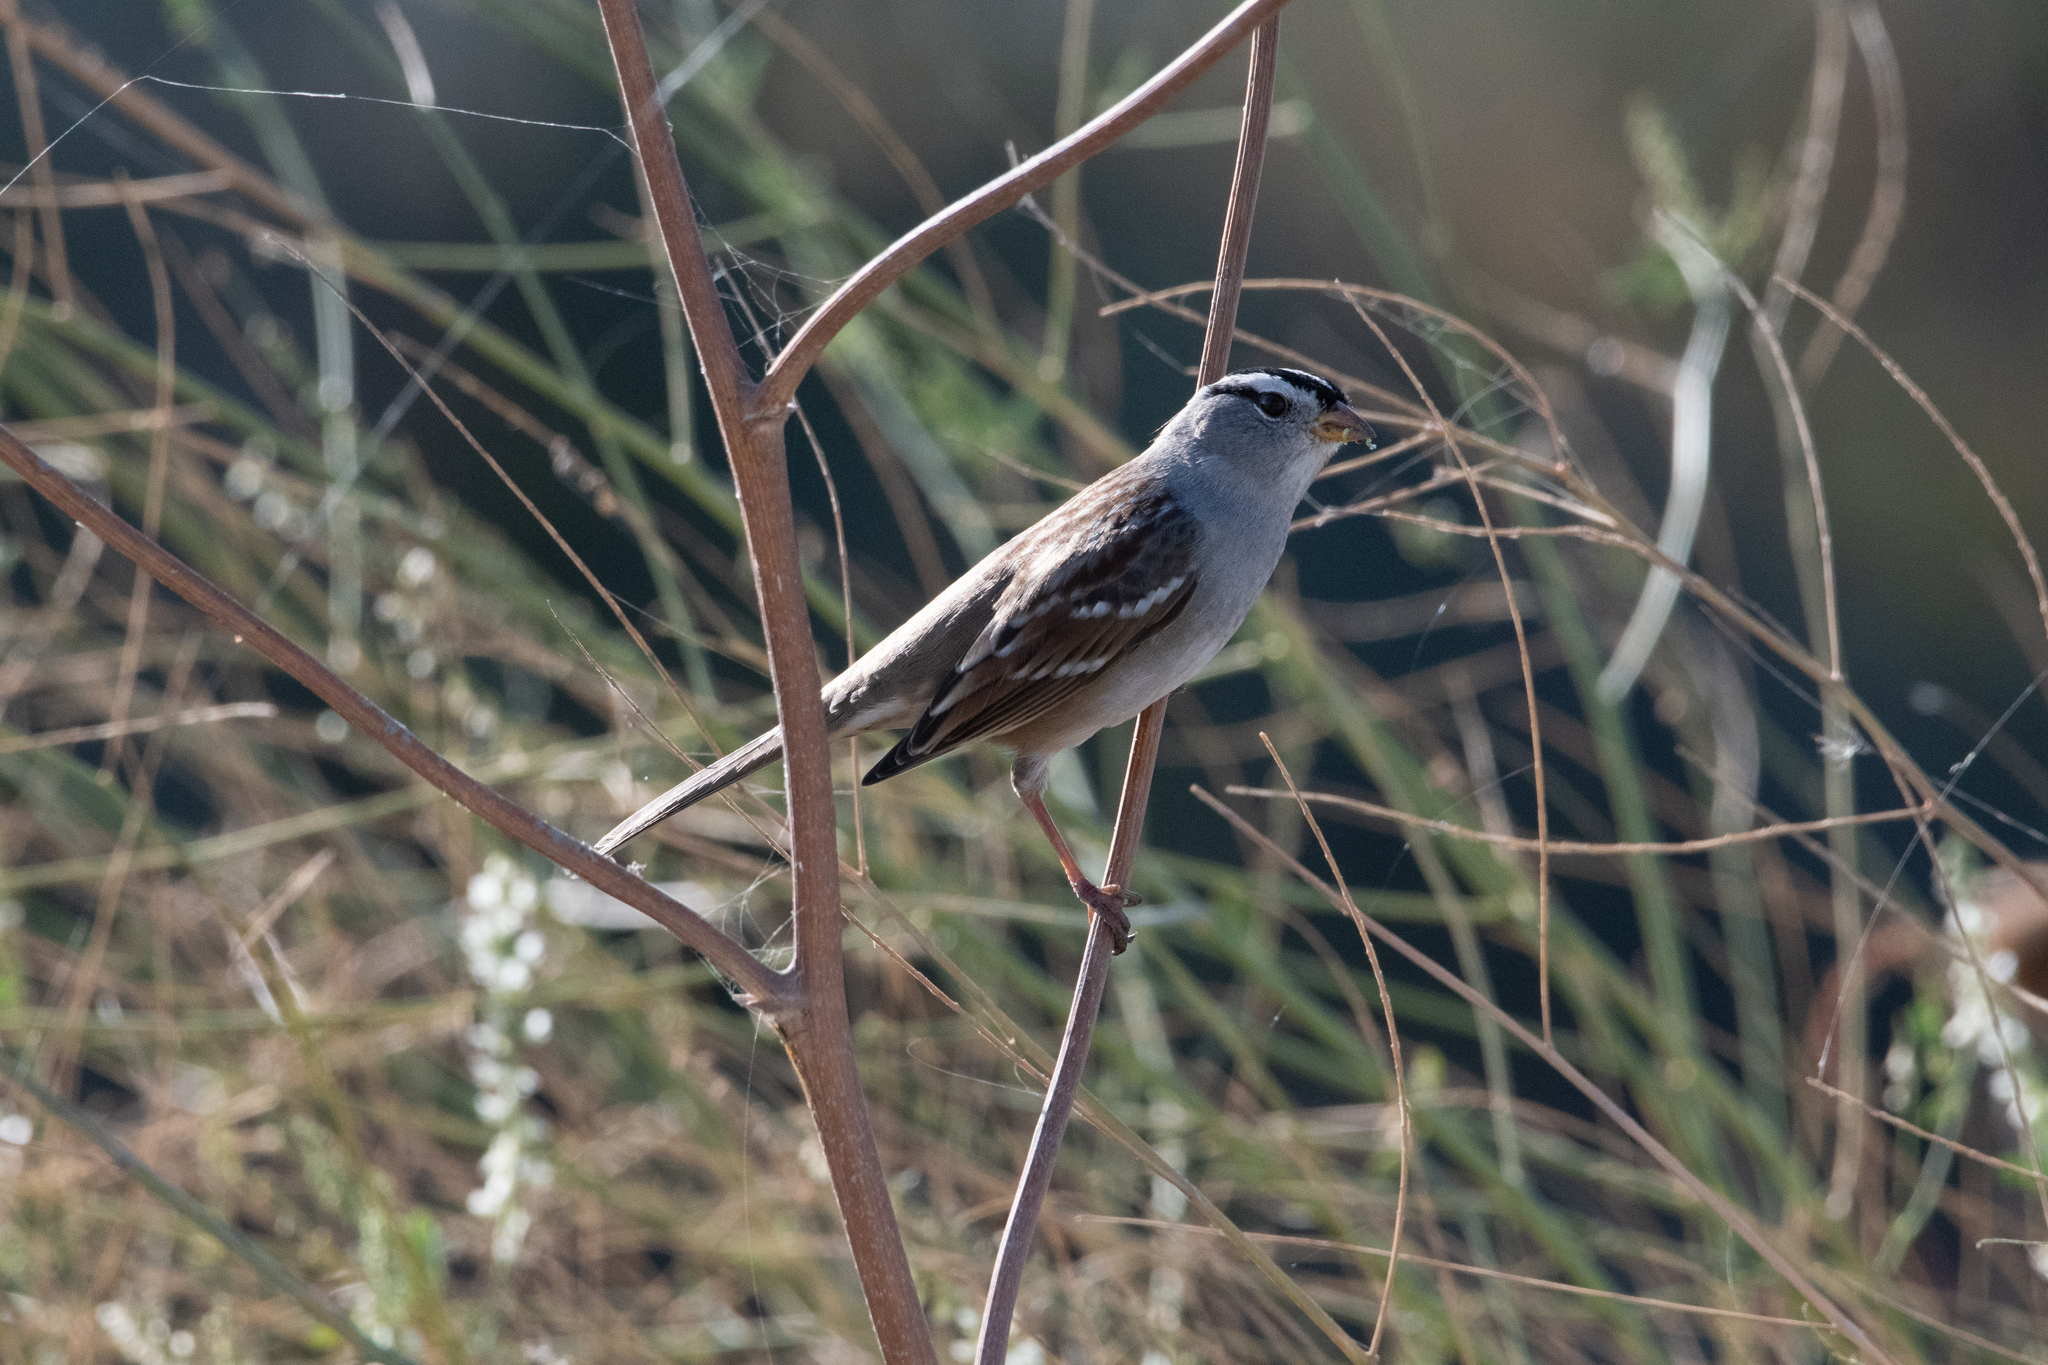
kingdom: Animalia
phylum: Chordata
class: Aves
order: Passeriformes
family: Passerellidae
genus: Zonotrichia
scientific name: Zonotrichia leucophrys
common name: White-crowned sparrow
